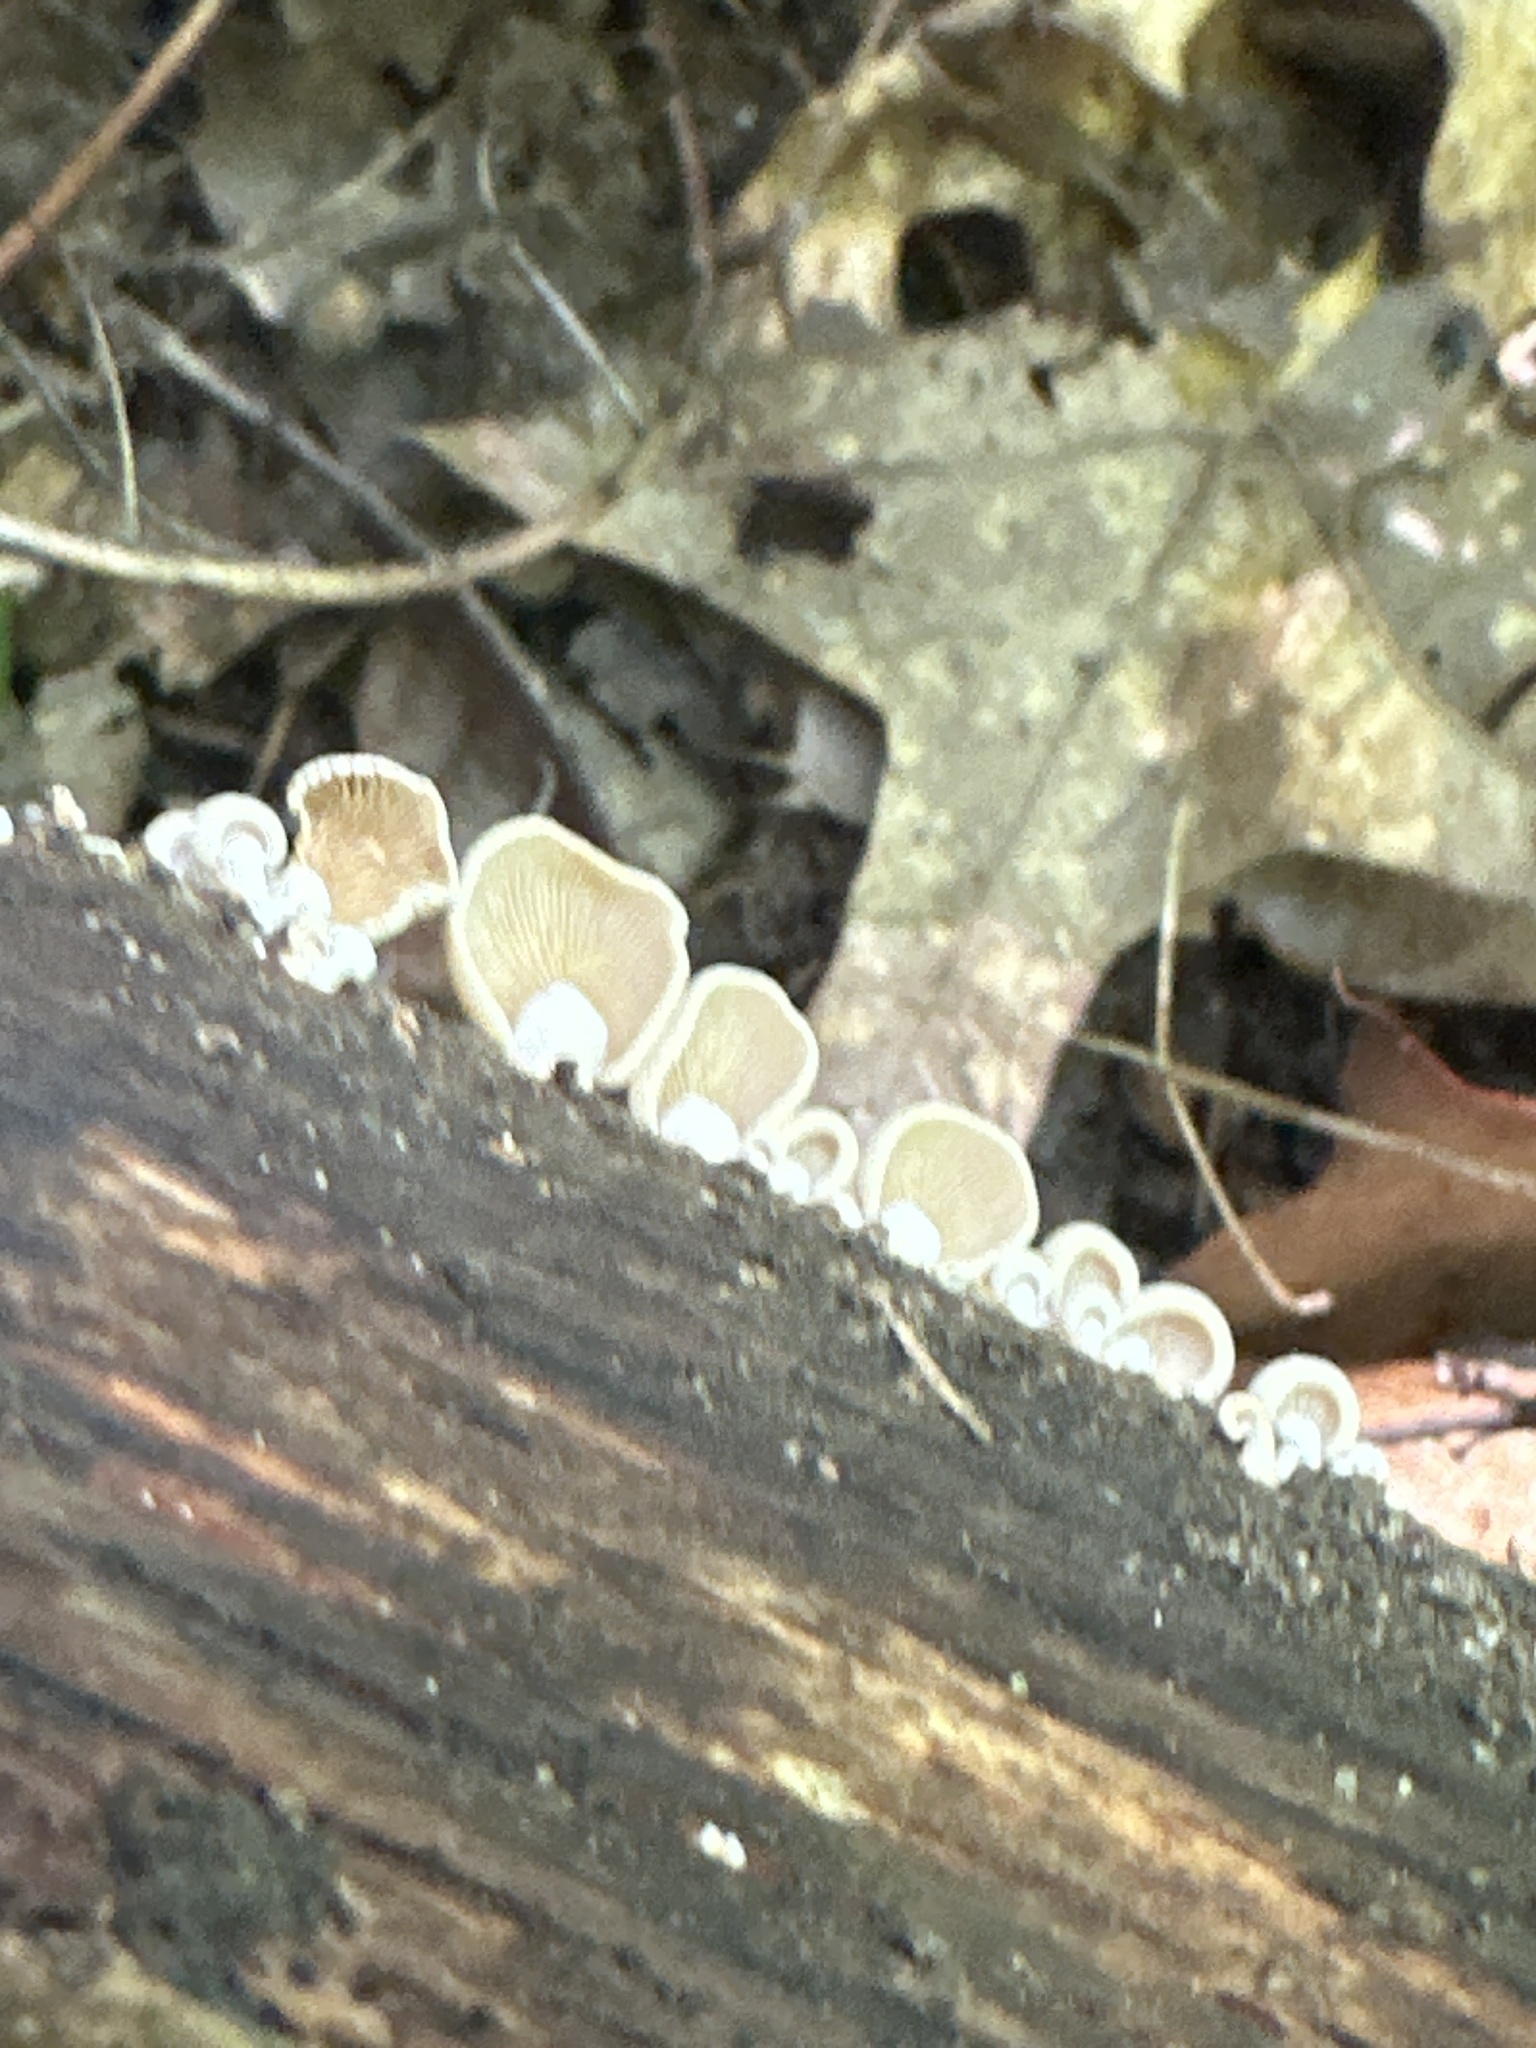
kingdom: Fungi
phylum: Basidiomycota
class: Agaricomycetes
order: Agaricales
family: Mycenaceae
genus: Panellus
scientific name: Panellus stipticus
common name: Bitter oysterling
